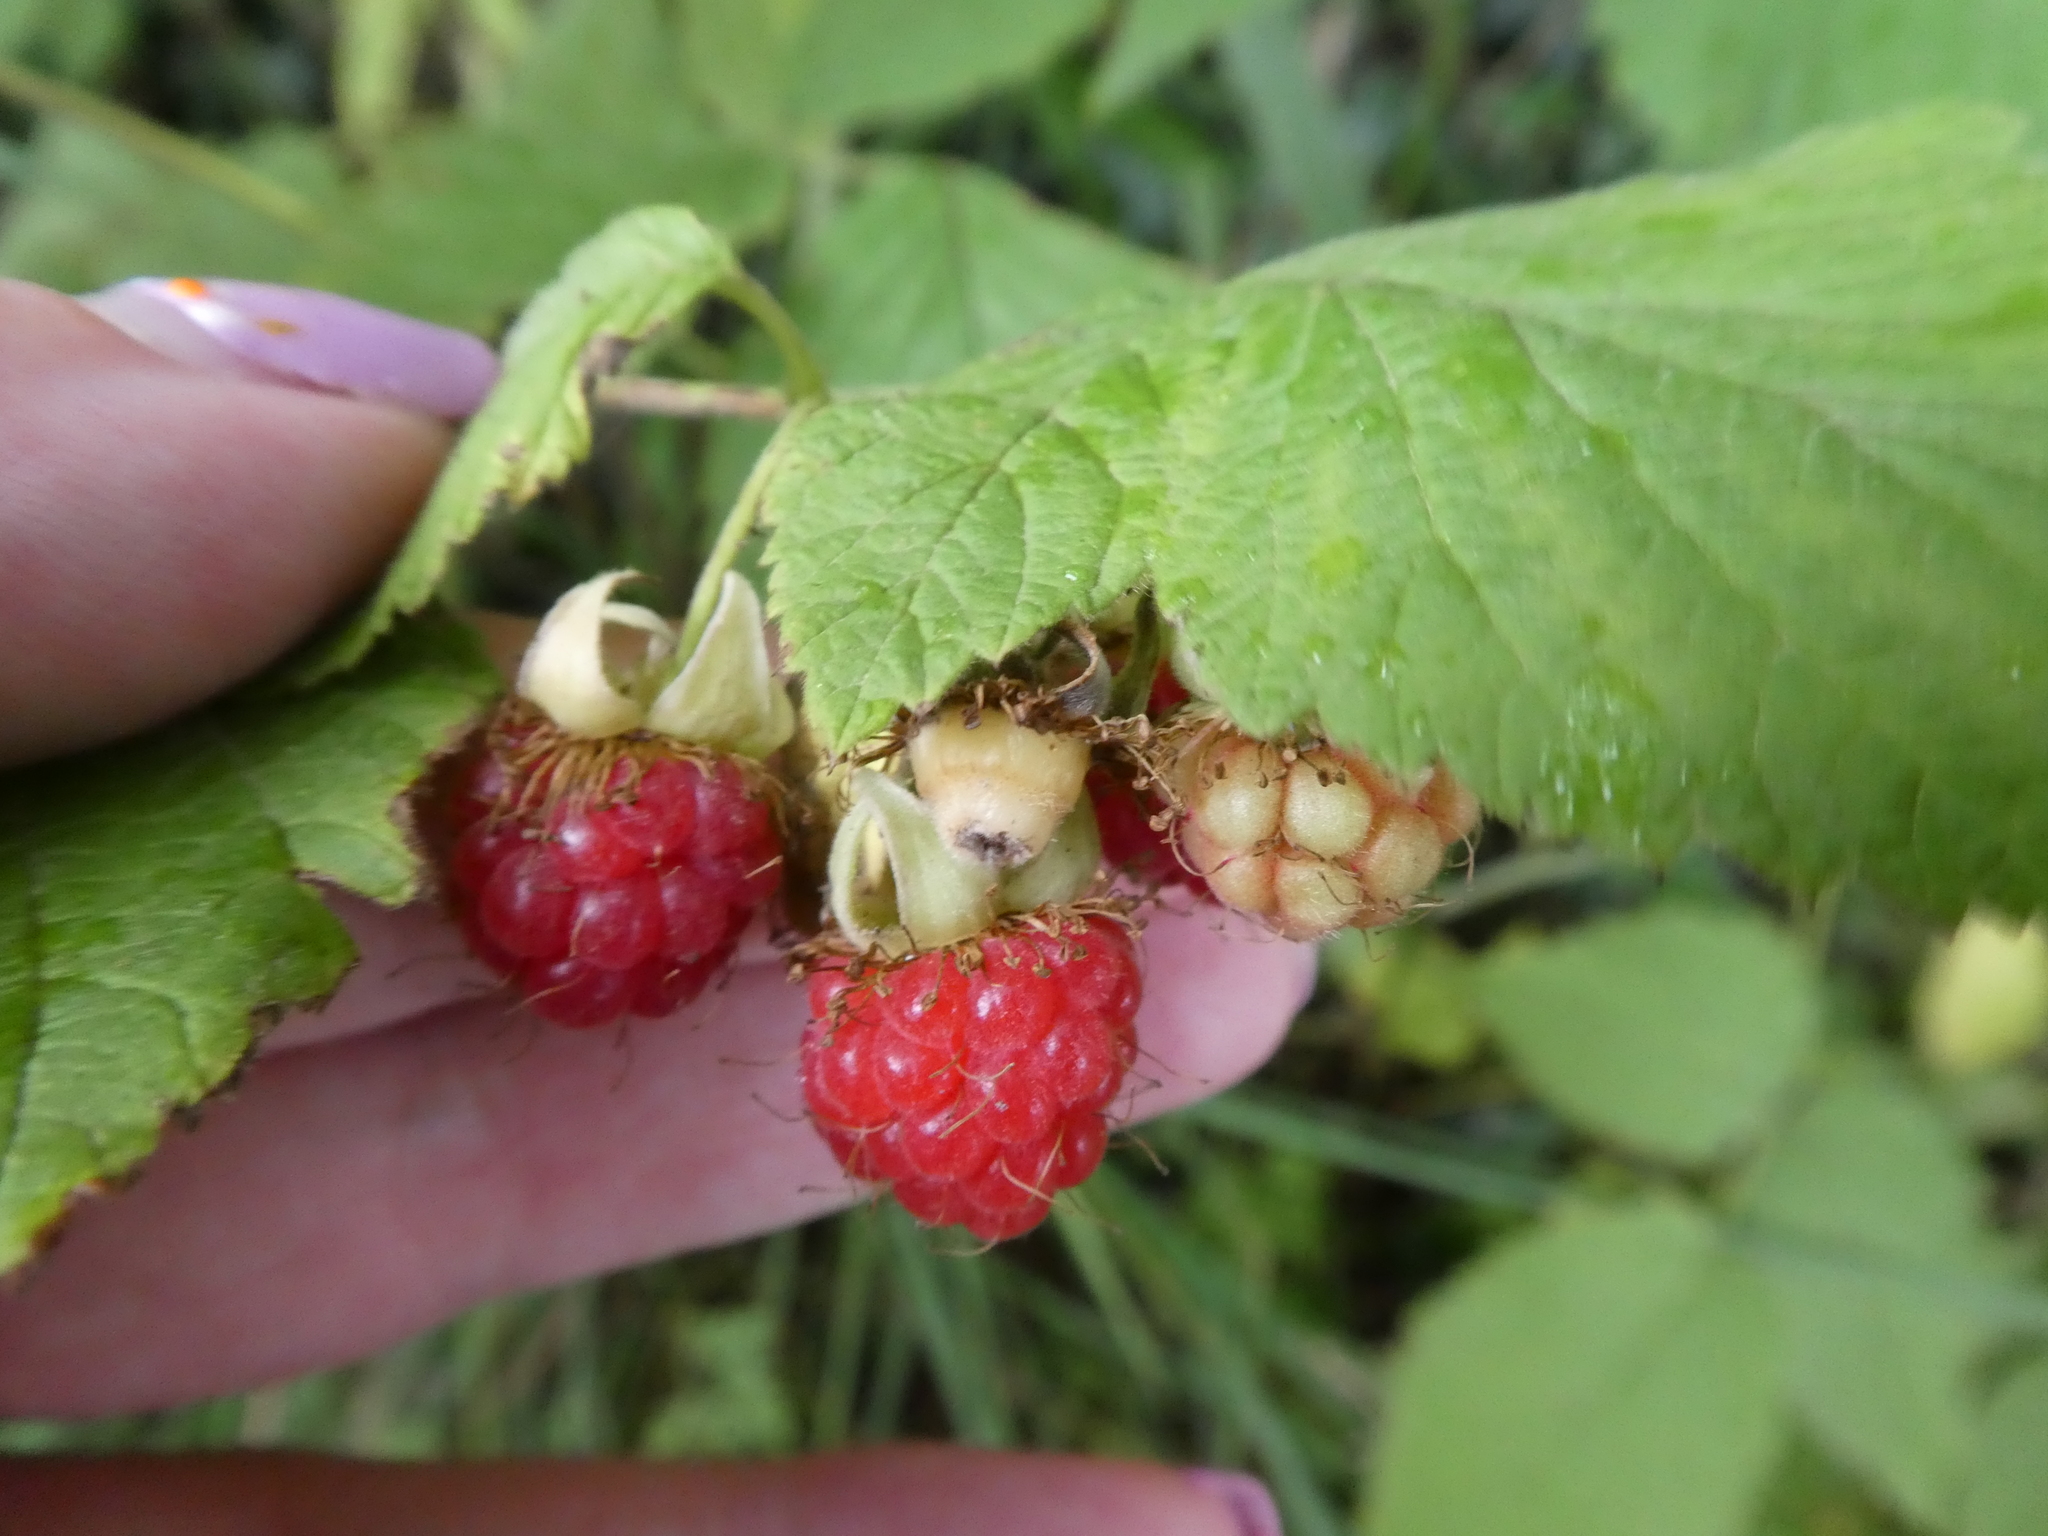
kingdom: Plantae
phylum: Tracheophyta
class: Magnoliopsida
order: Rosales
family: Rosaceae
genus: Rubus
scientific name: Rubus idaeus
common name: Raspberry
